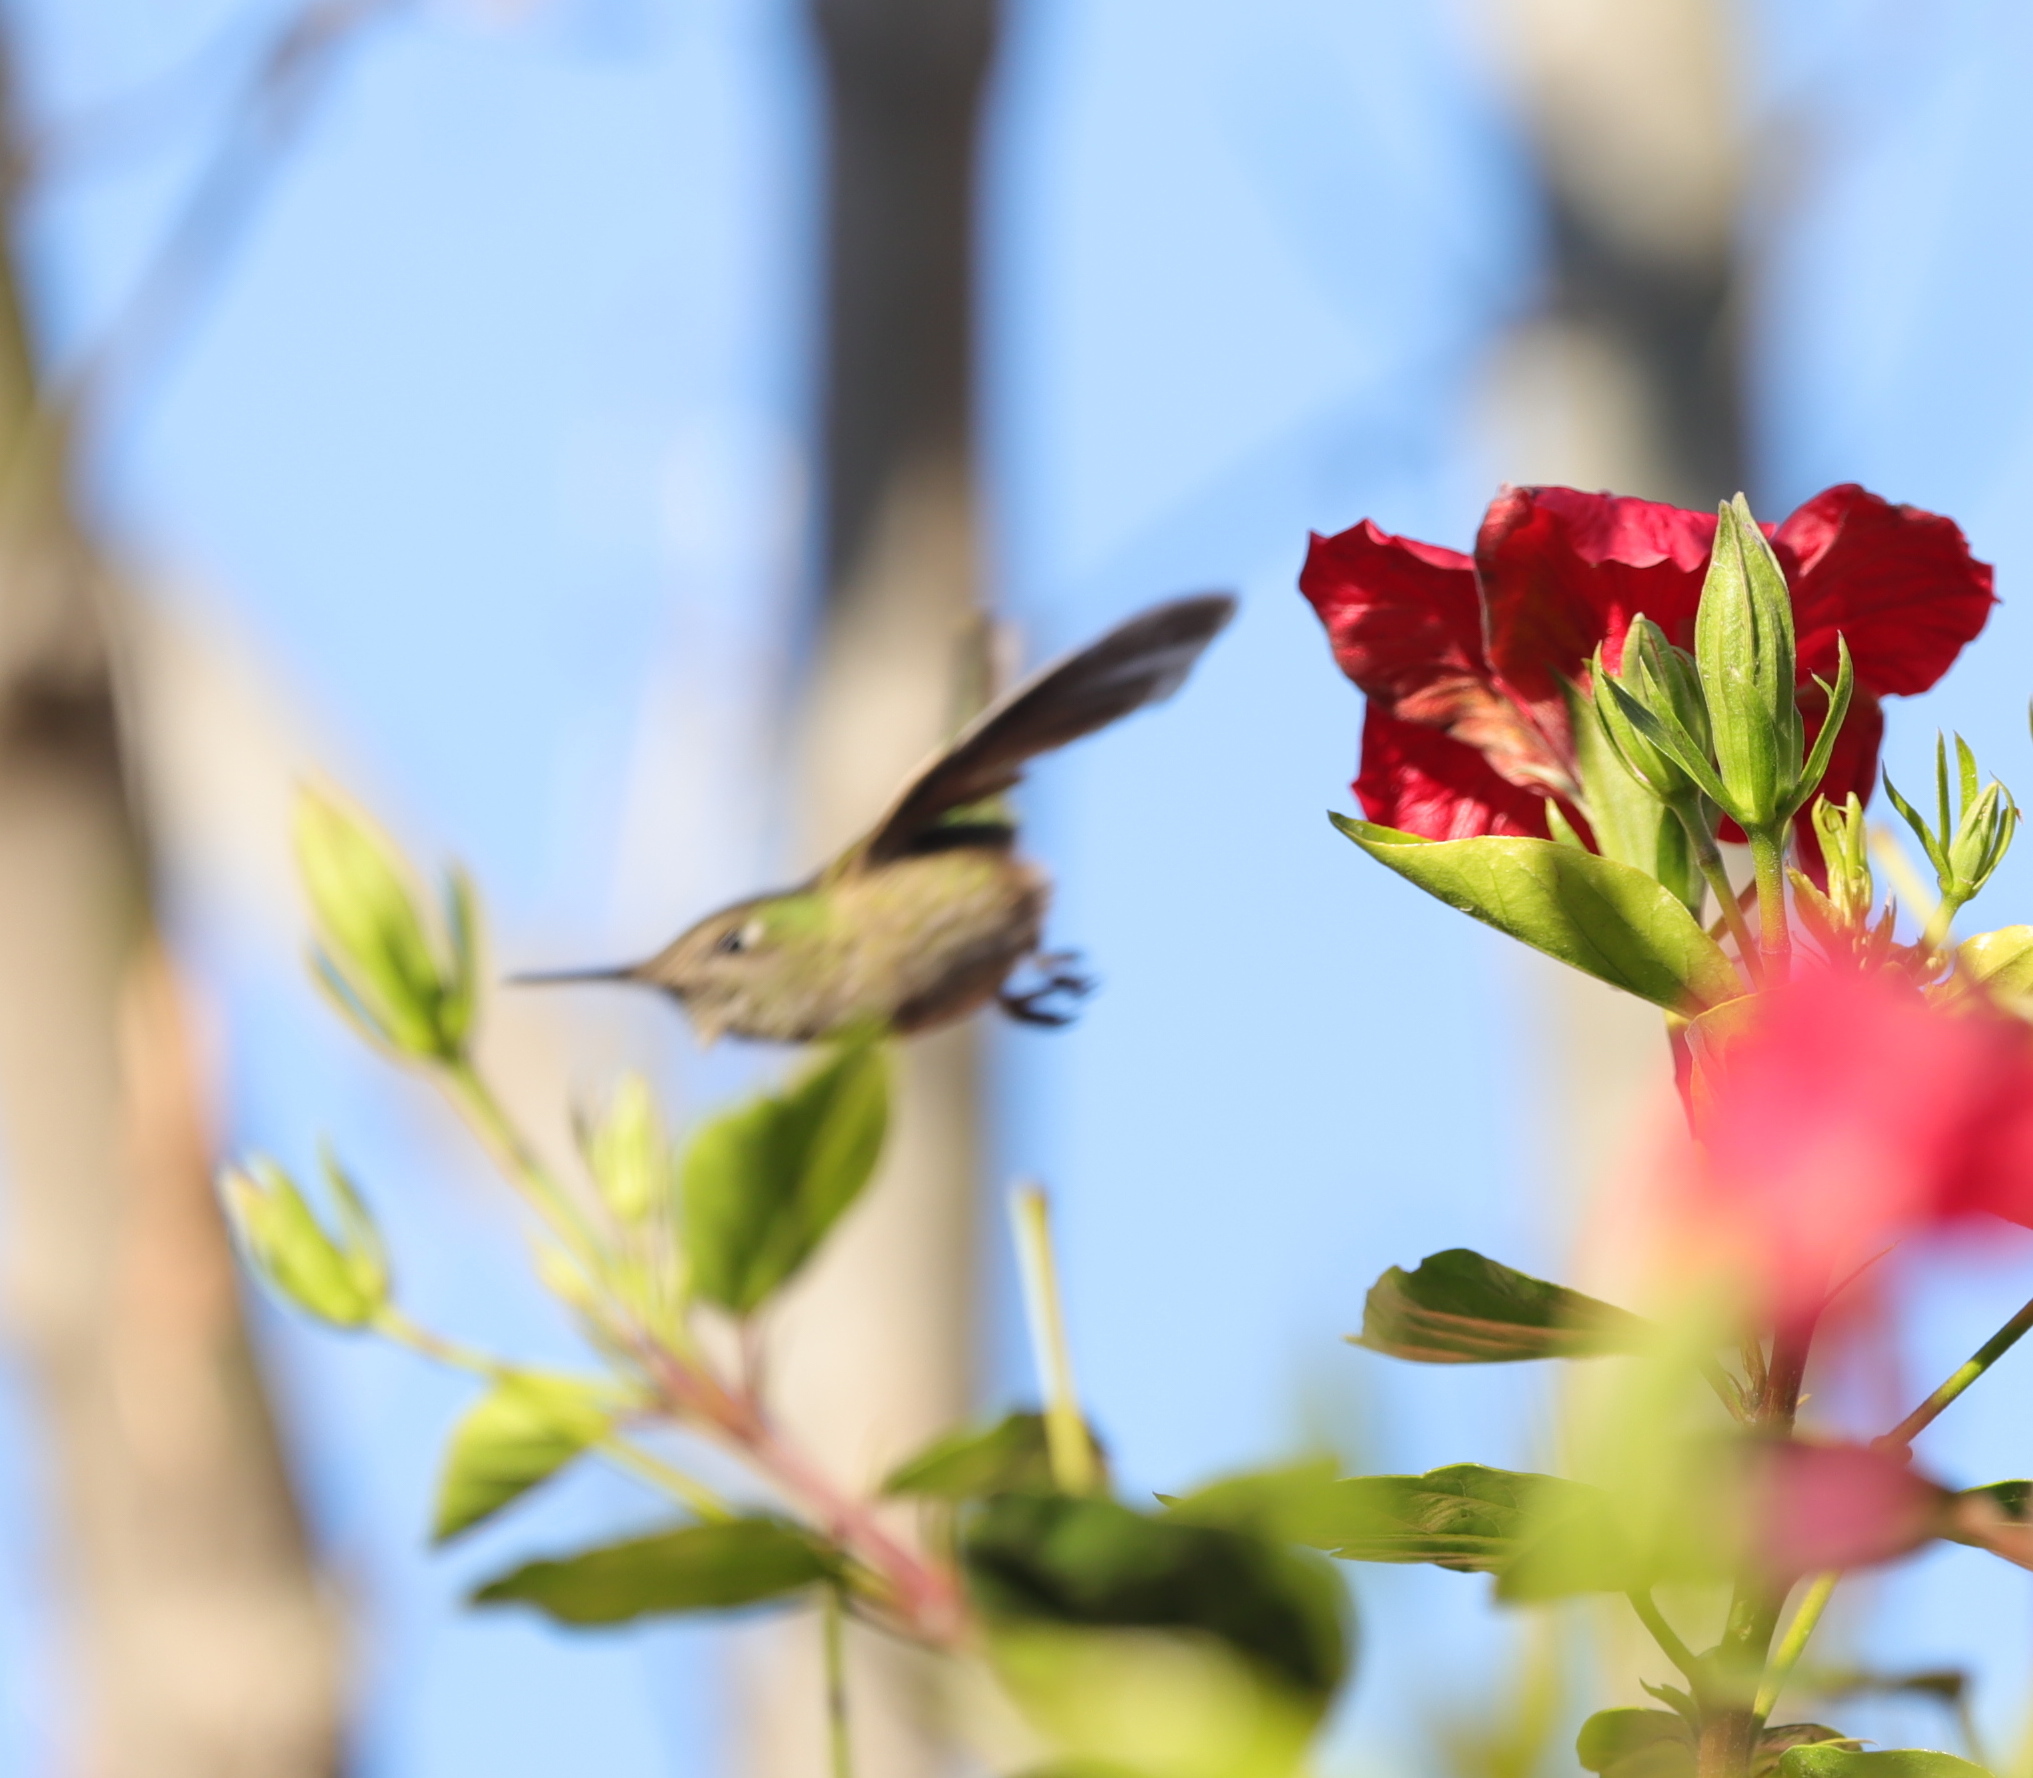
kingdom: Animalia
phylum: Chordata
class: Aves
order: Apodiformes
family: Trochilidae
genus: Sephanoides
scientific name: Sephanoides sephaniodes
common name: Green-backed firecrown
